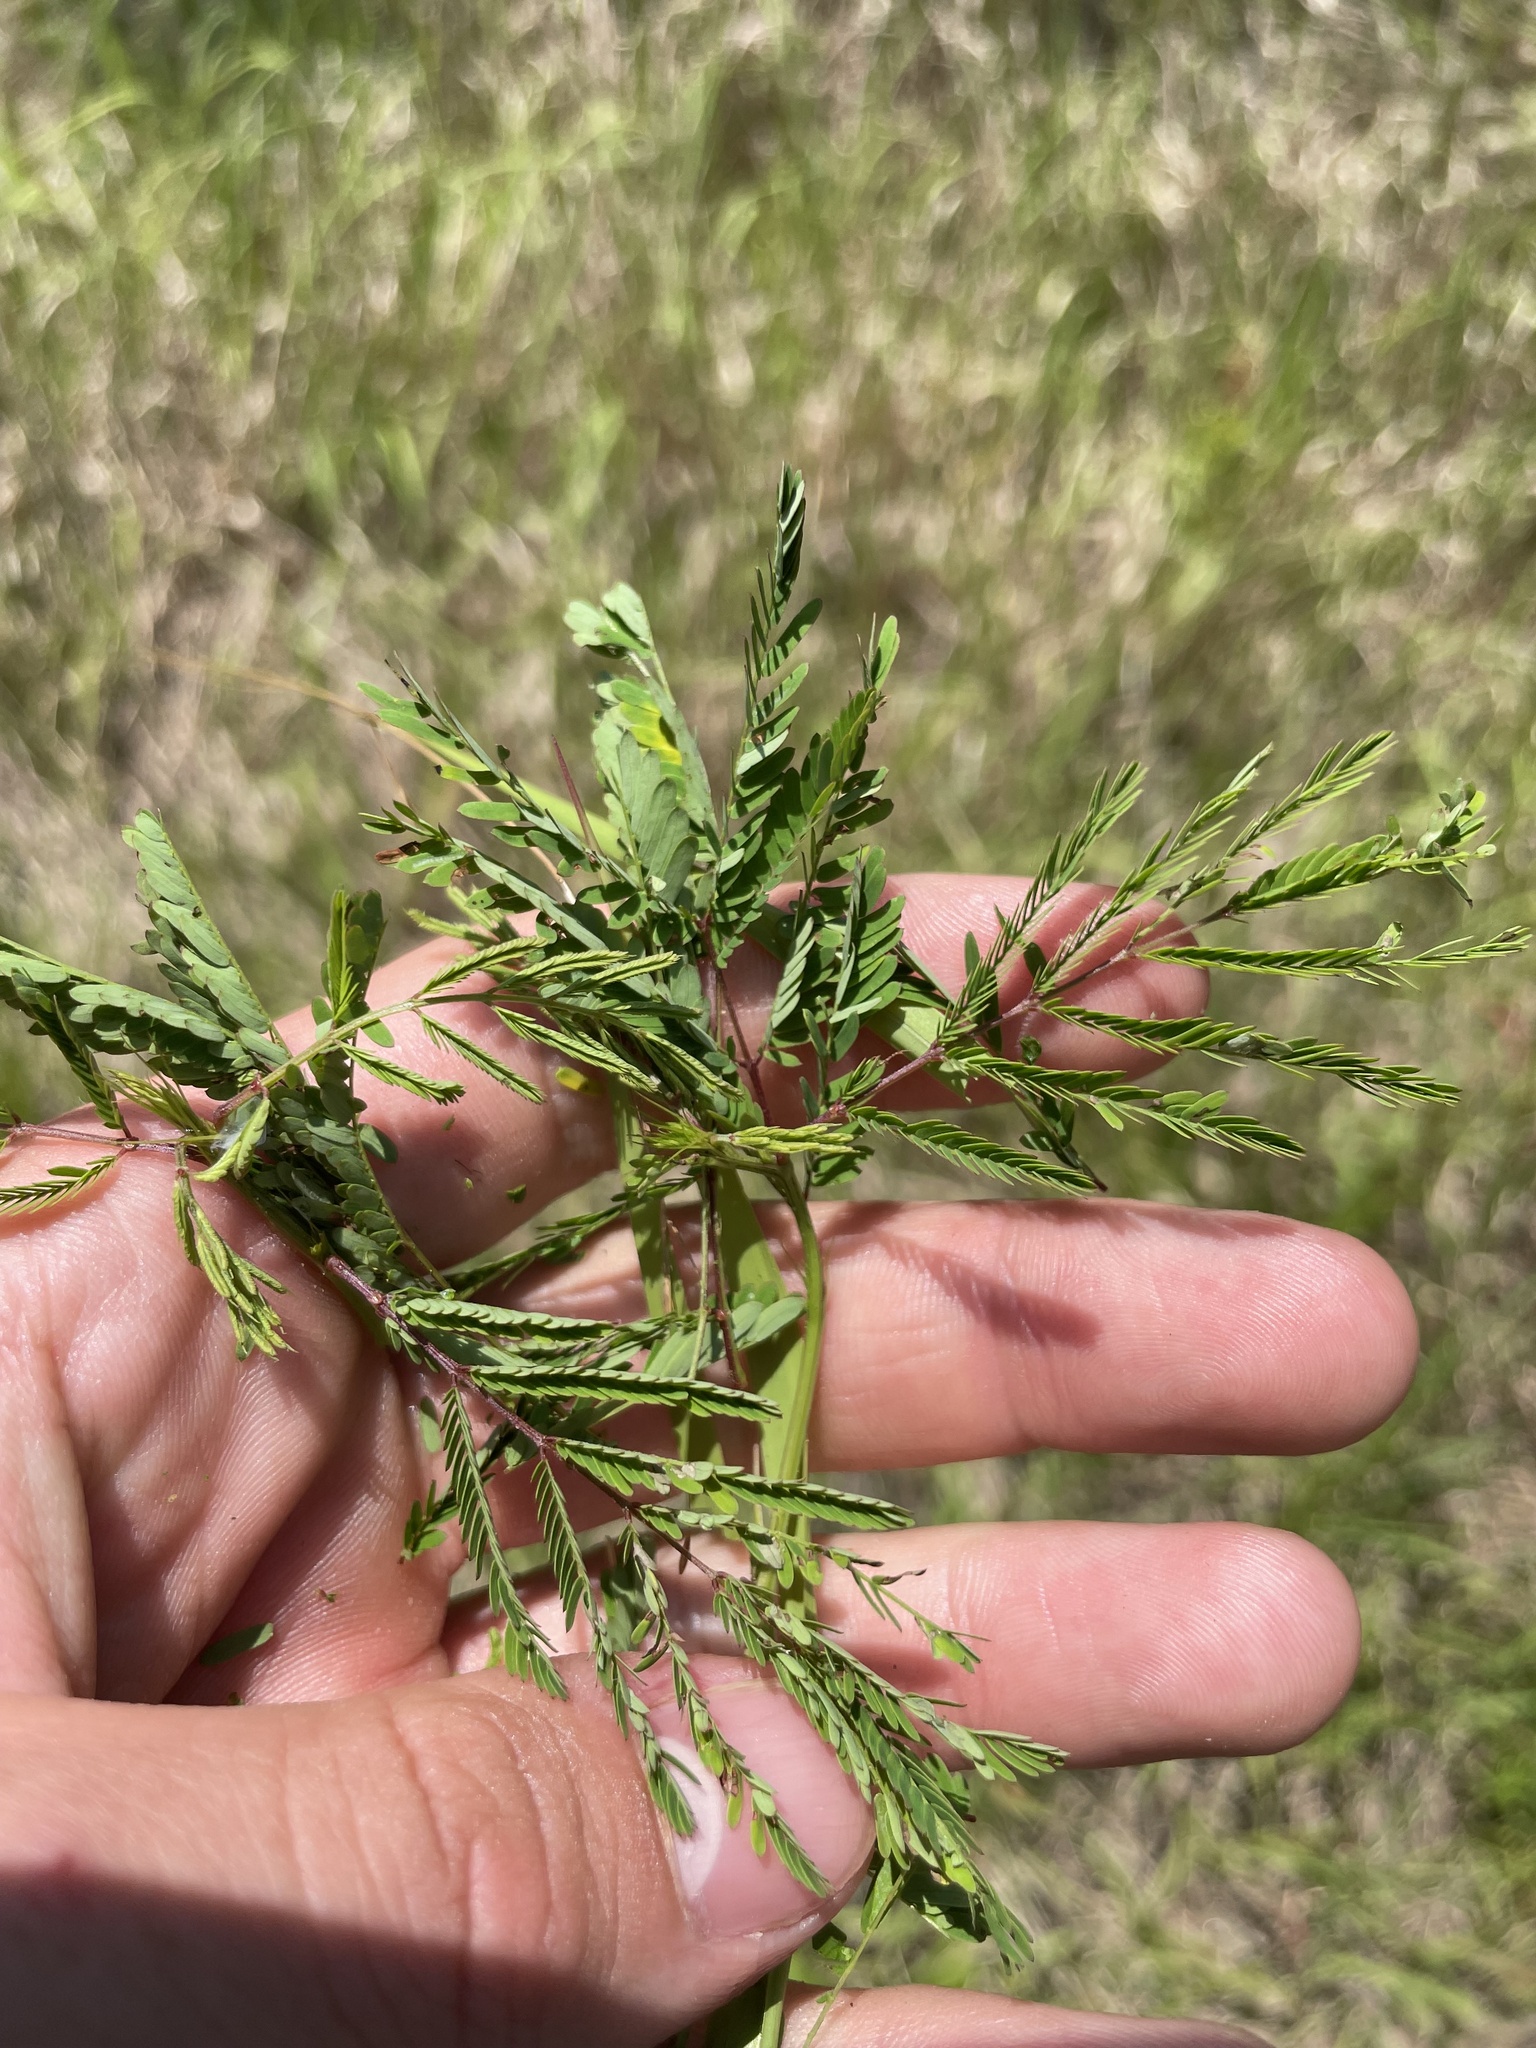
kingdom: Plantae
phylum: Tracheophyta
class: Magnoliopsida
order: Fabales
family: Fabaceae
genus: Desmanthus
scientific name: Desmanthus illinoensis
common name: Illinois bundle-flower
